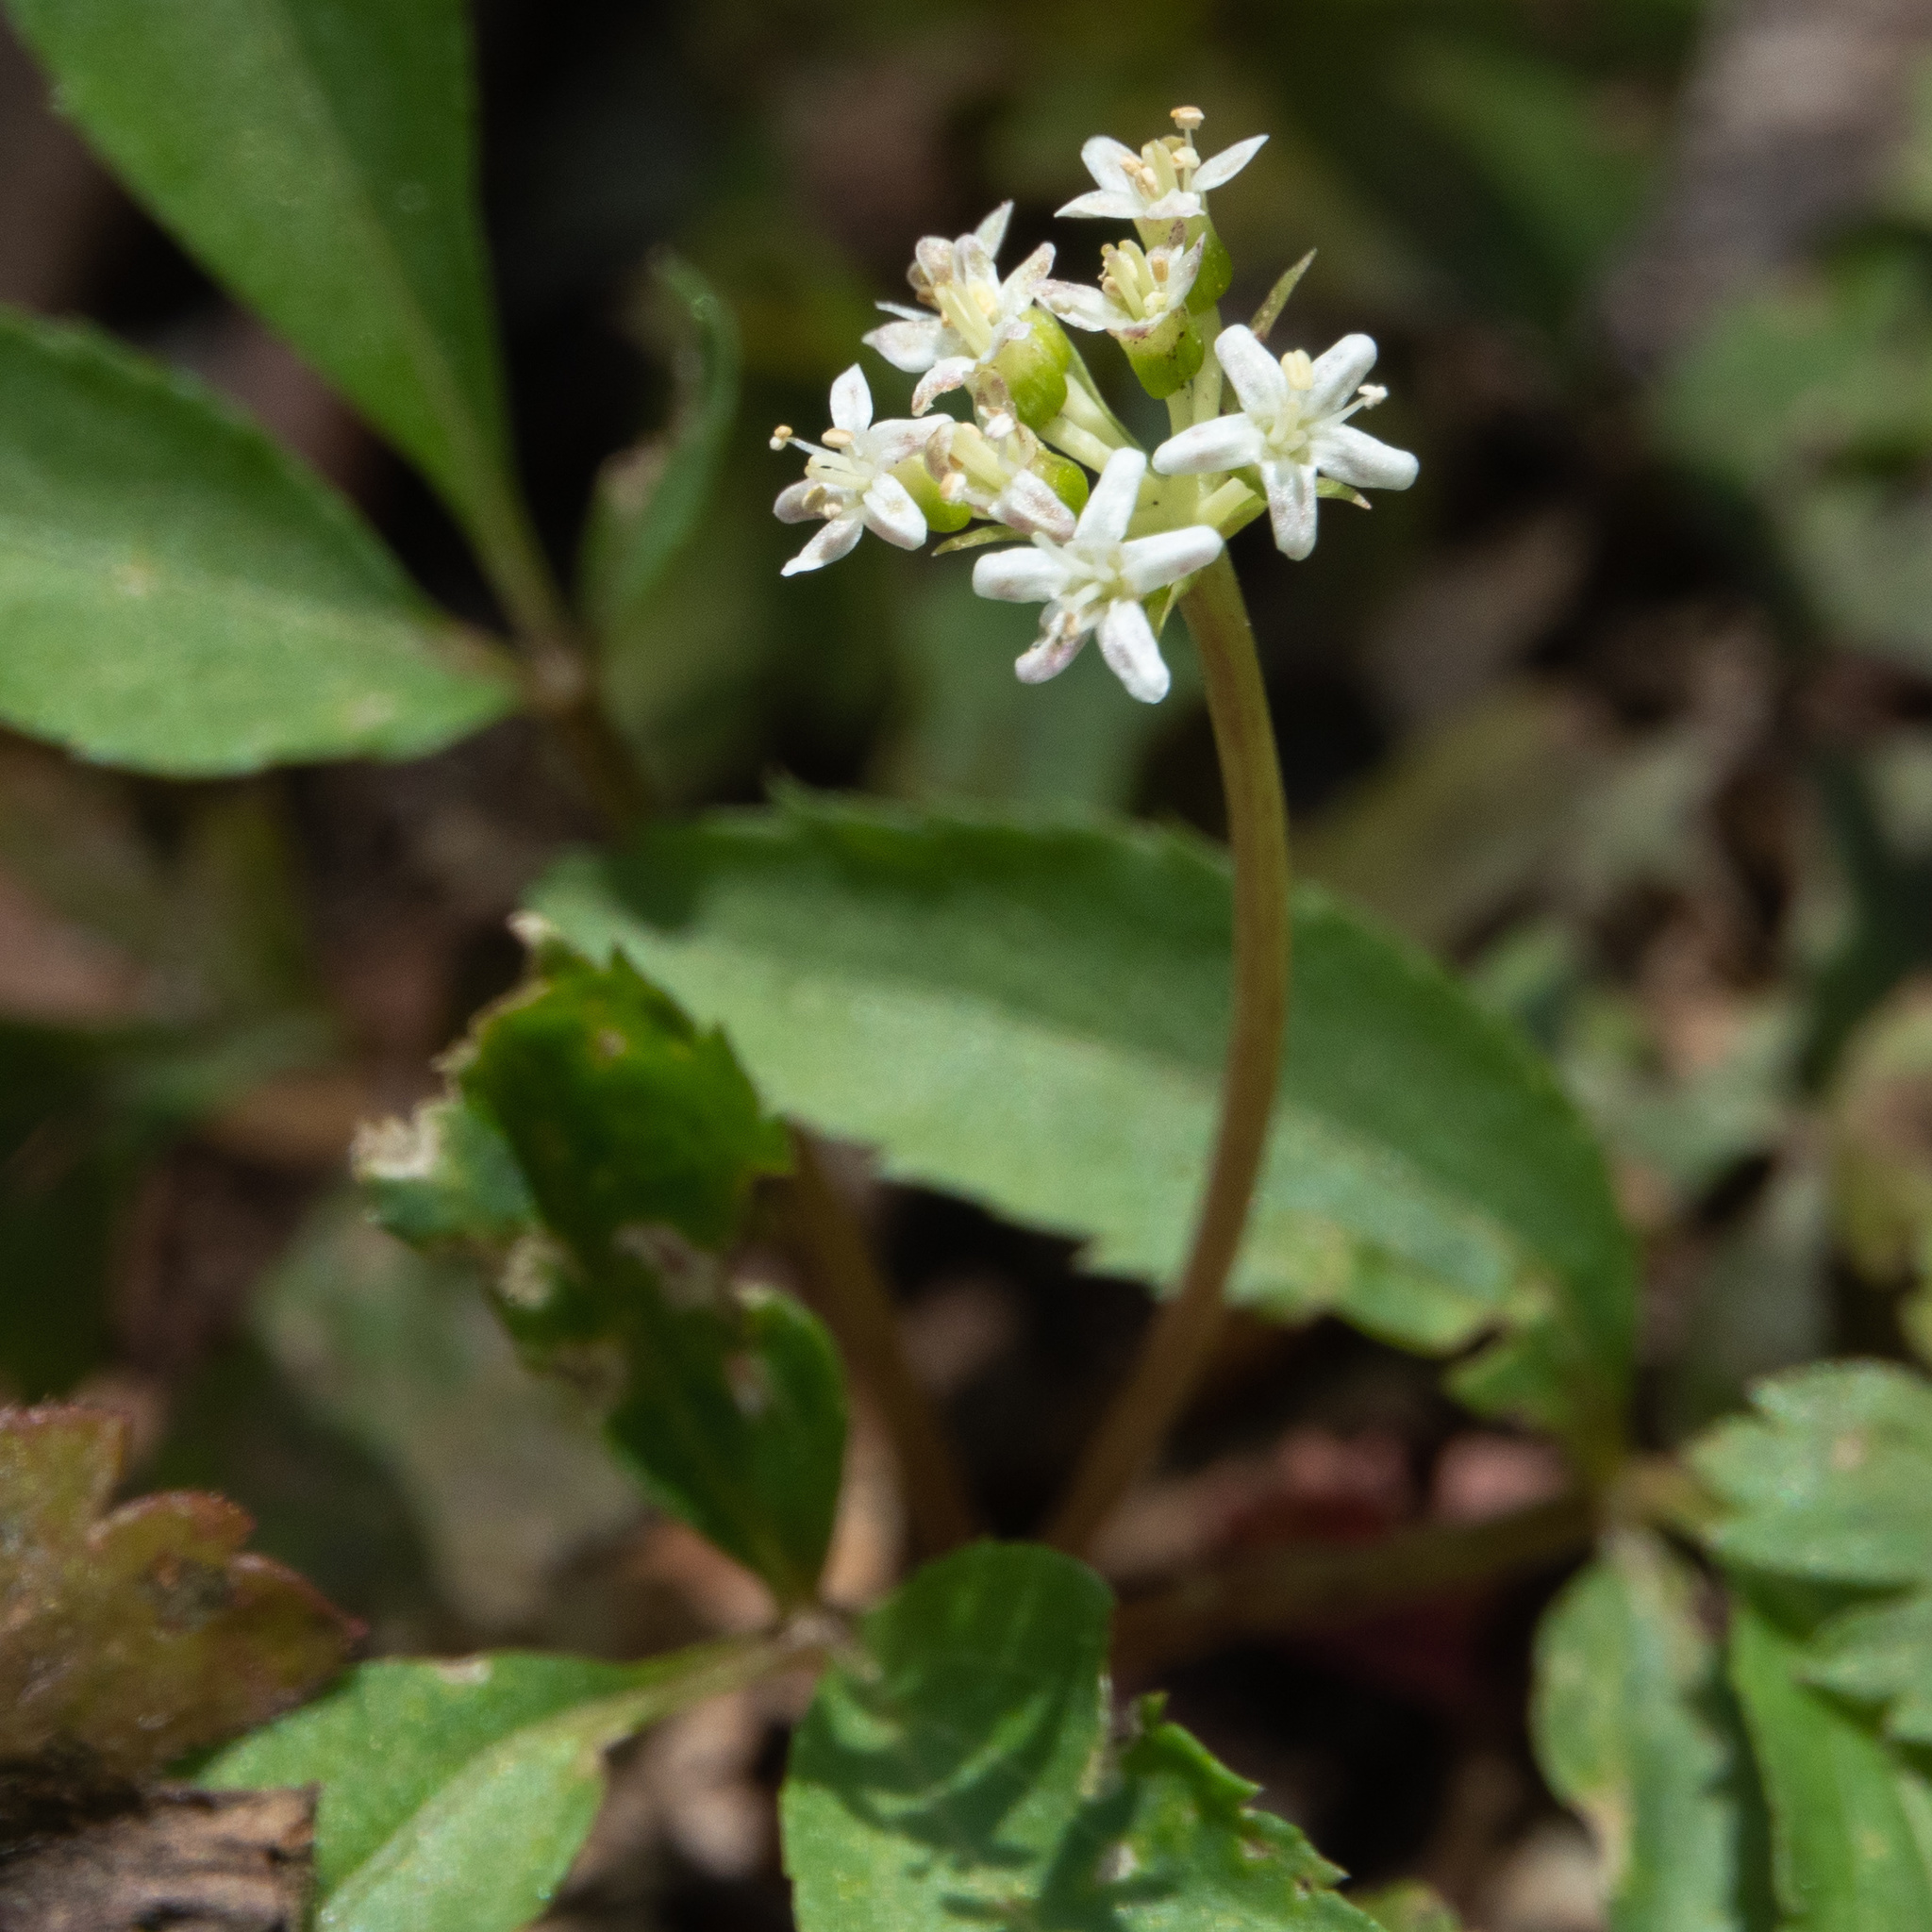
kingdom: Plantae
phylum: Tracheophyta
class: Magnoliopsida
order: Apiales
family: Araliaceae
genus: Panax
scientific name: Panax trifolius
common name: Dwarf ginseng
